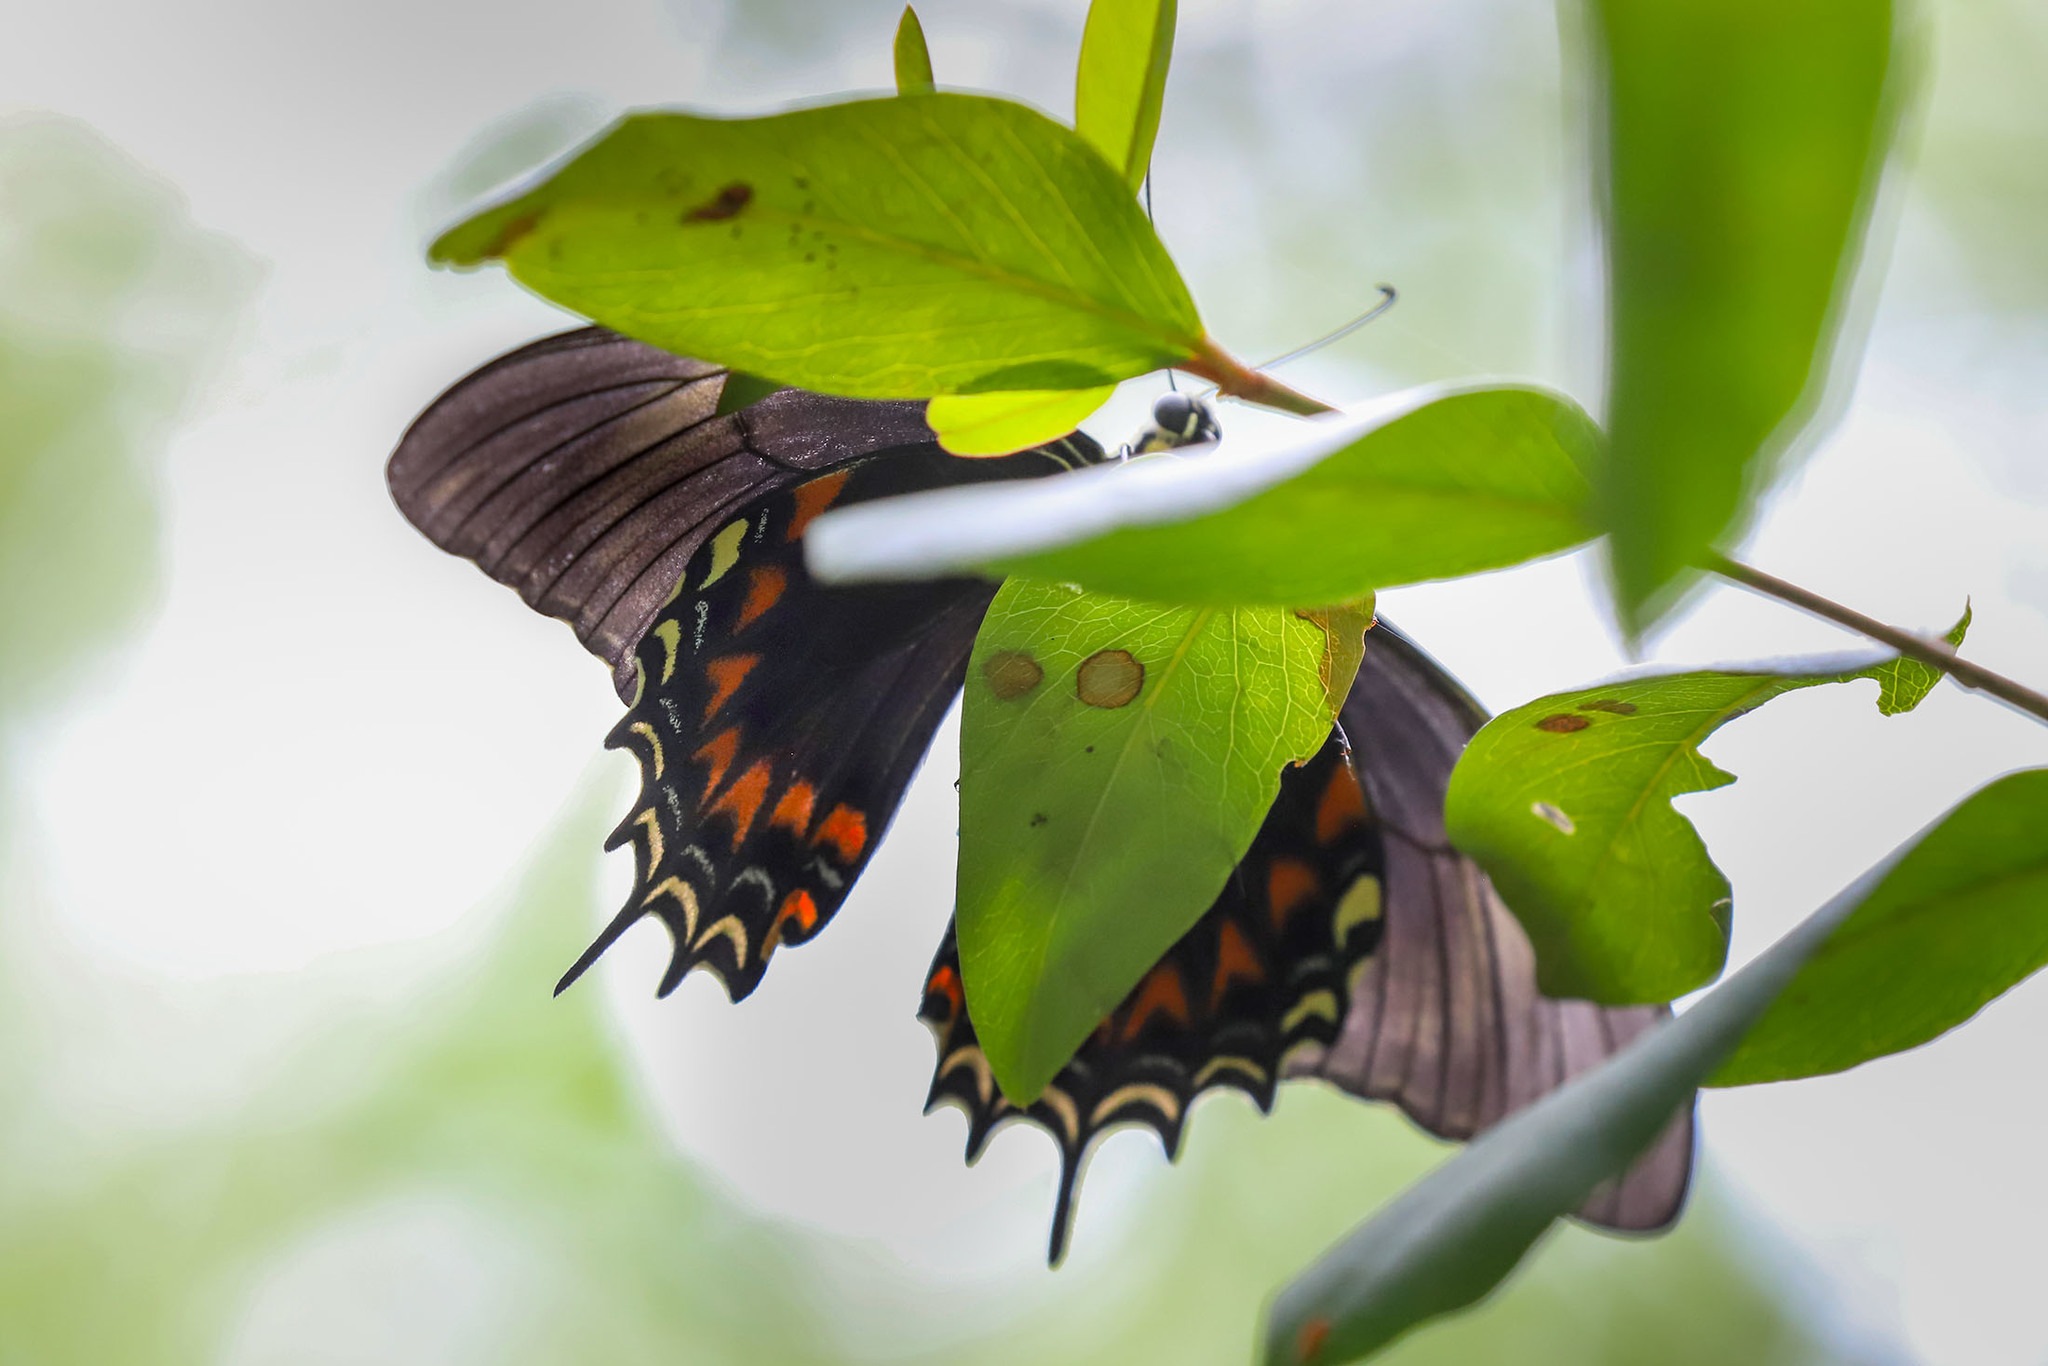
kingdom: Animalia
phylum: Arthropoda
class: Insecta
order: Lepidoptera
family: Papilionidae
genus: Papilio
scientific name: Papilio androgeus
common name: Androgeus swallowtail
